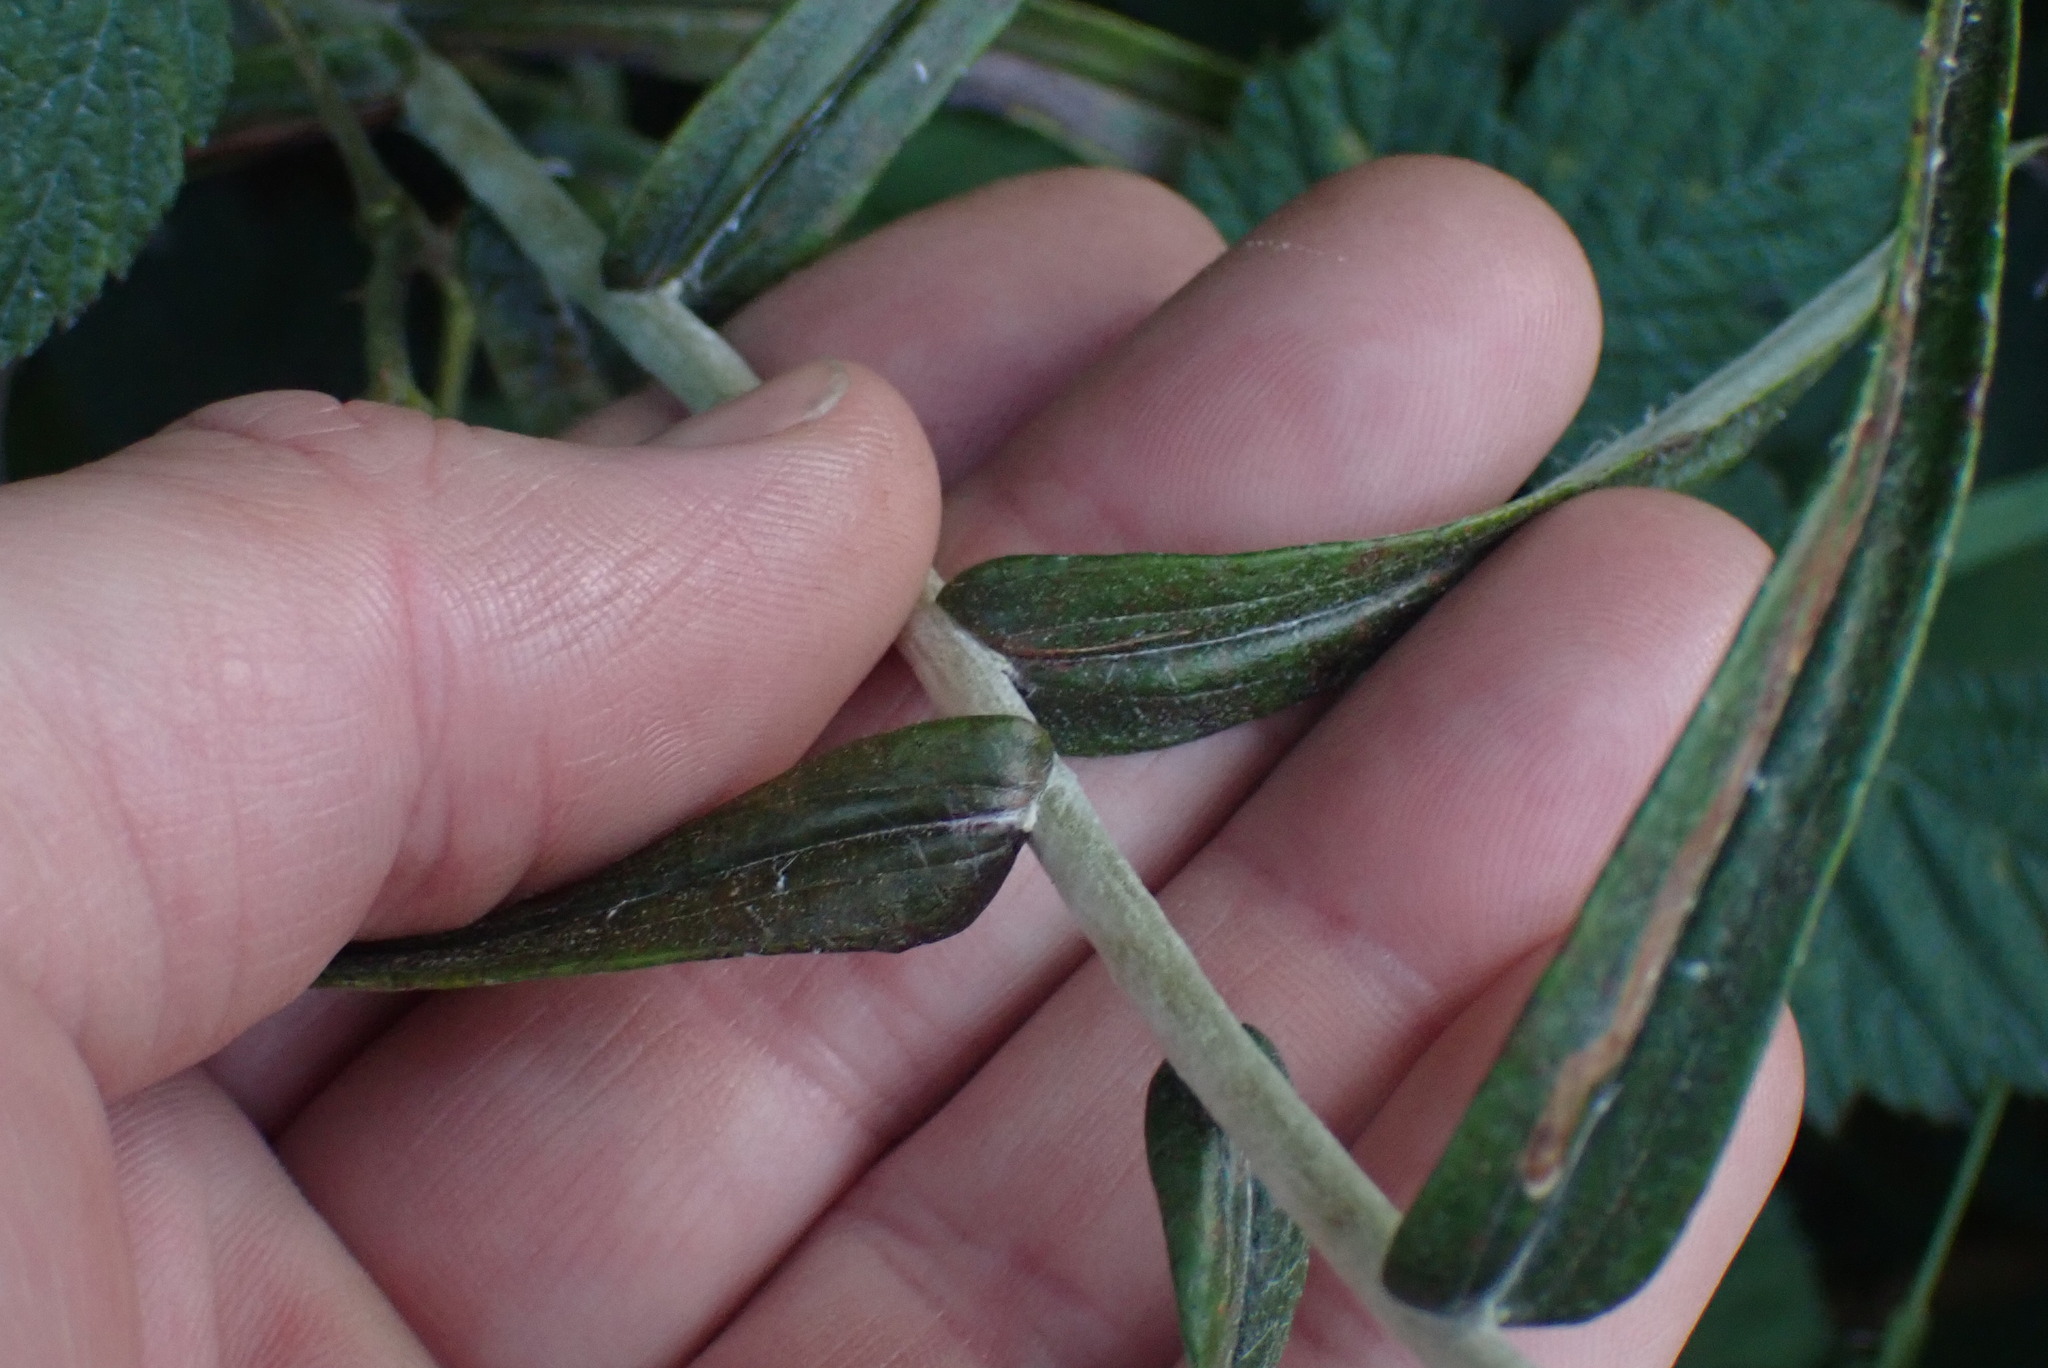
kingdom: Plantae
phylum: Tracheophyta
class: Magnoliopsida
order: Asterales
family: Asteraceae
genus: Anaphalis
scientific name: Anaphalis margaritacea
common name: Pearly everlasting
